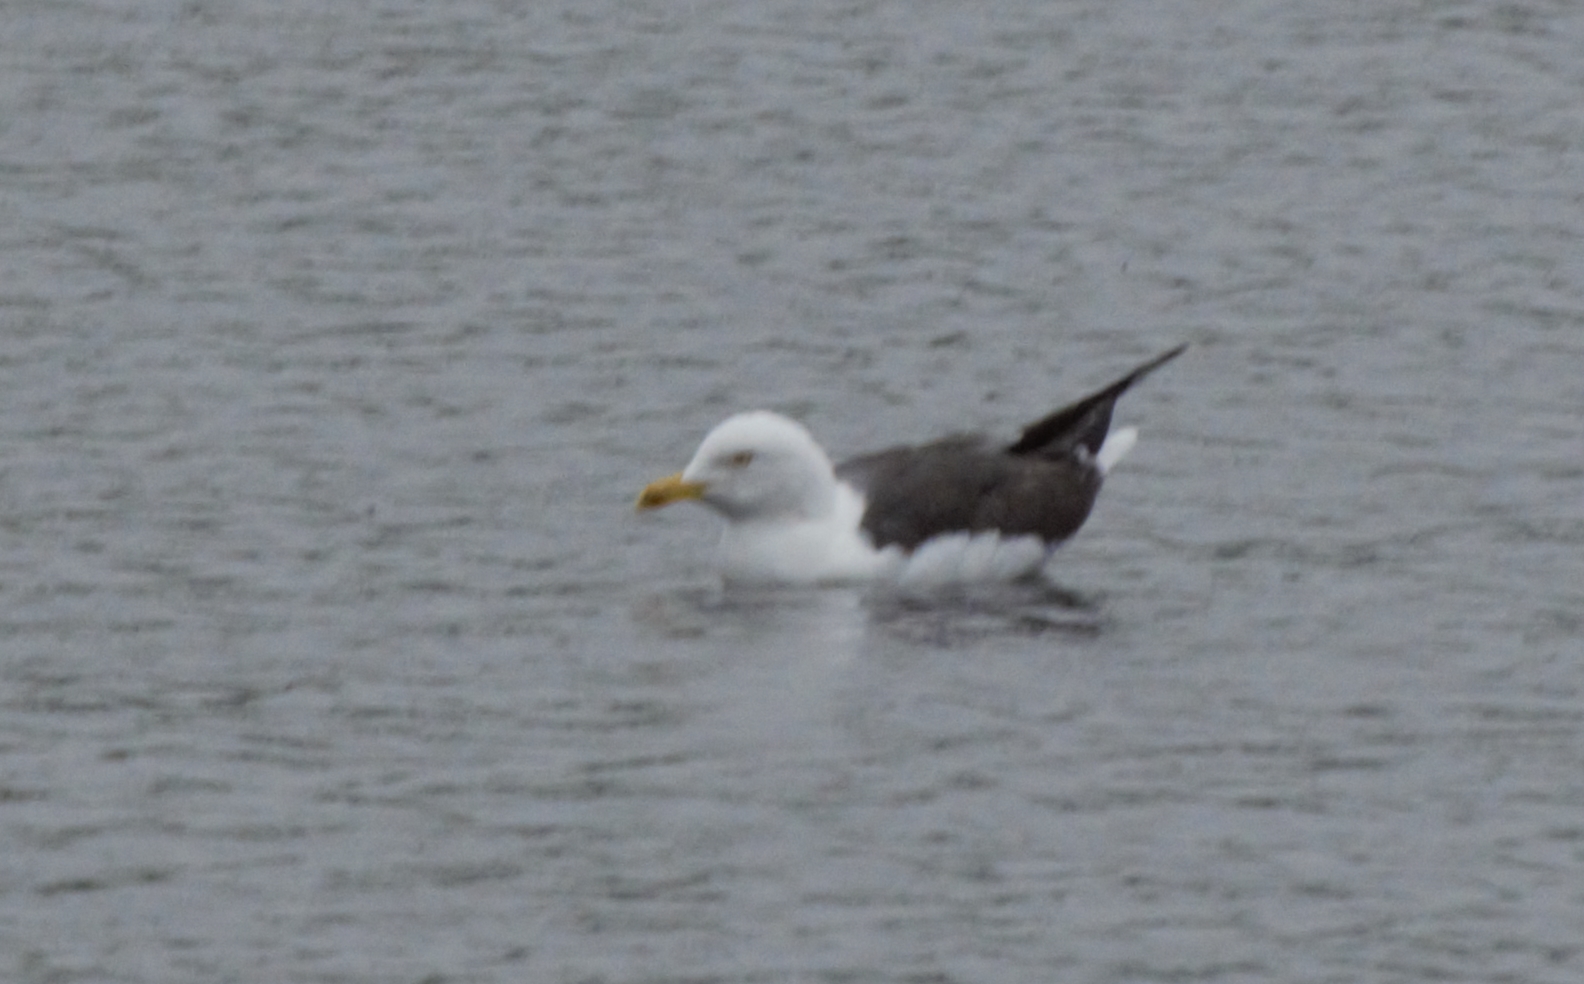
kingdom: Animalia
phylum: Chordata
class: Aves
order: Charadriiformes
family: Laridae
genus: Larus
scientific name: Larus fuscus
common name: Lesser black-backed gull
